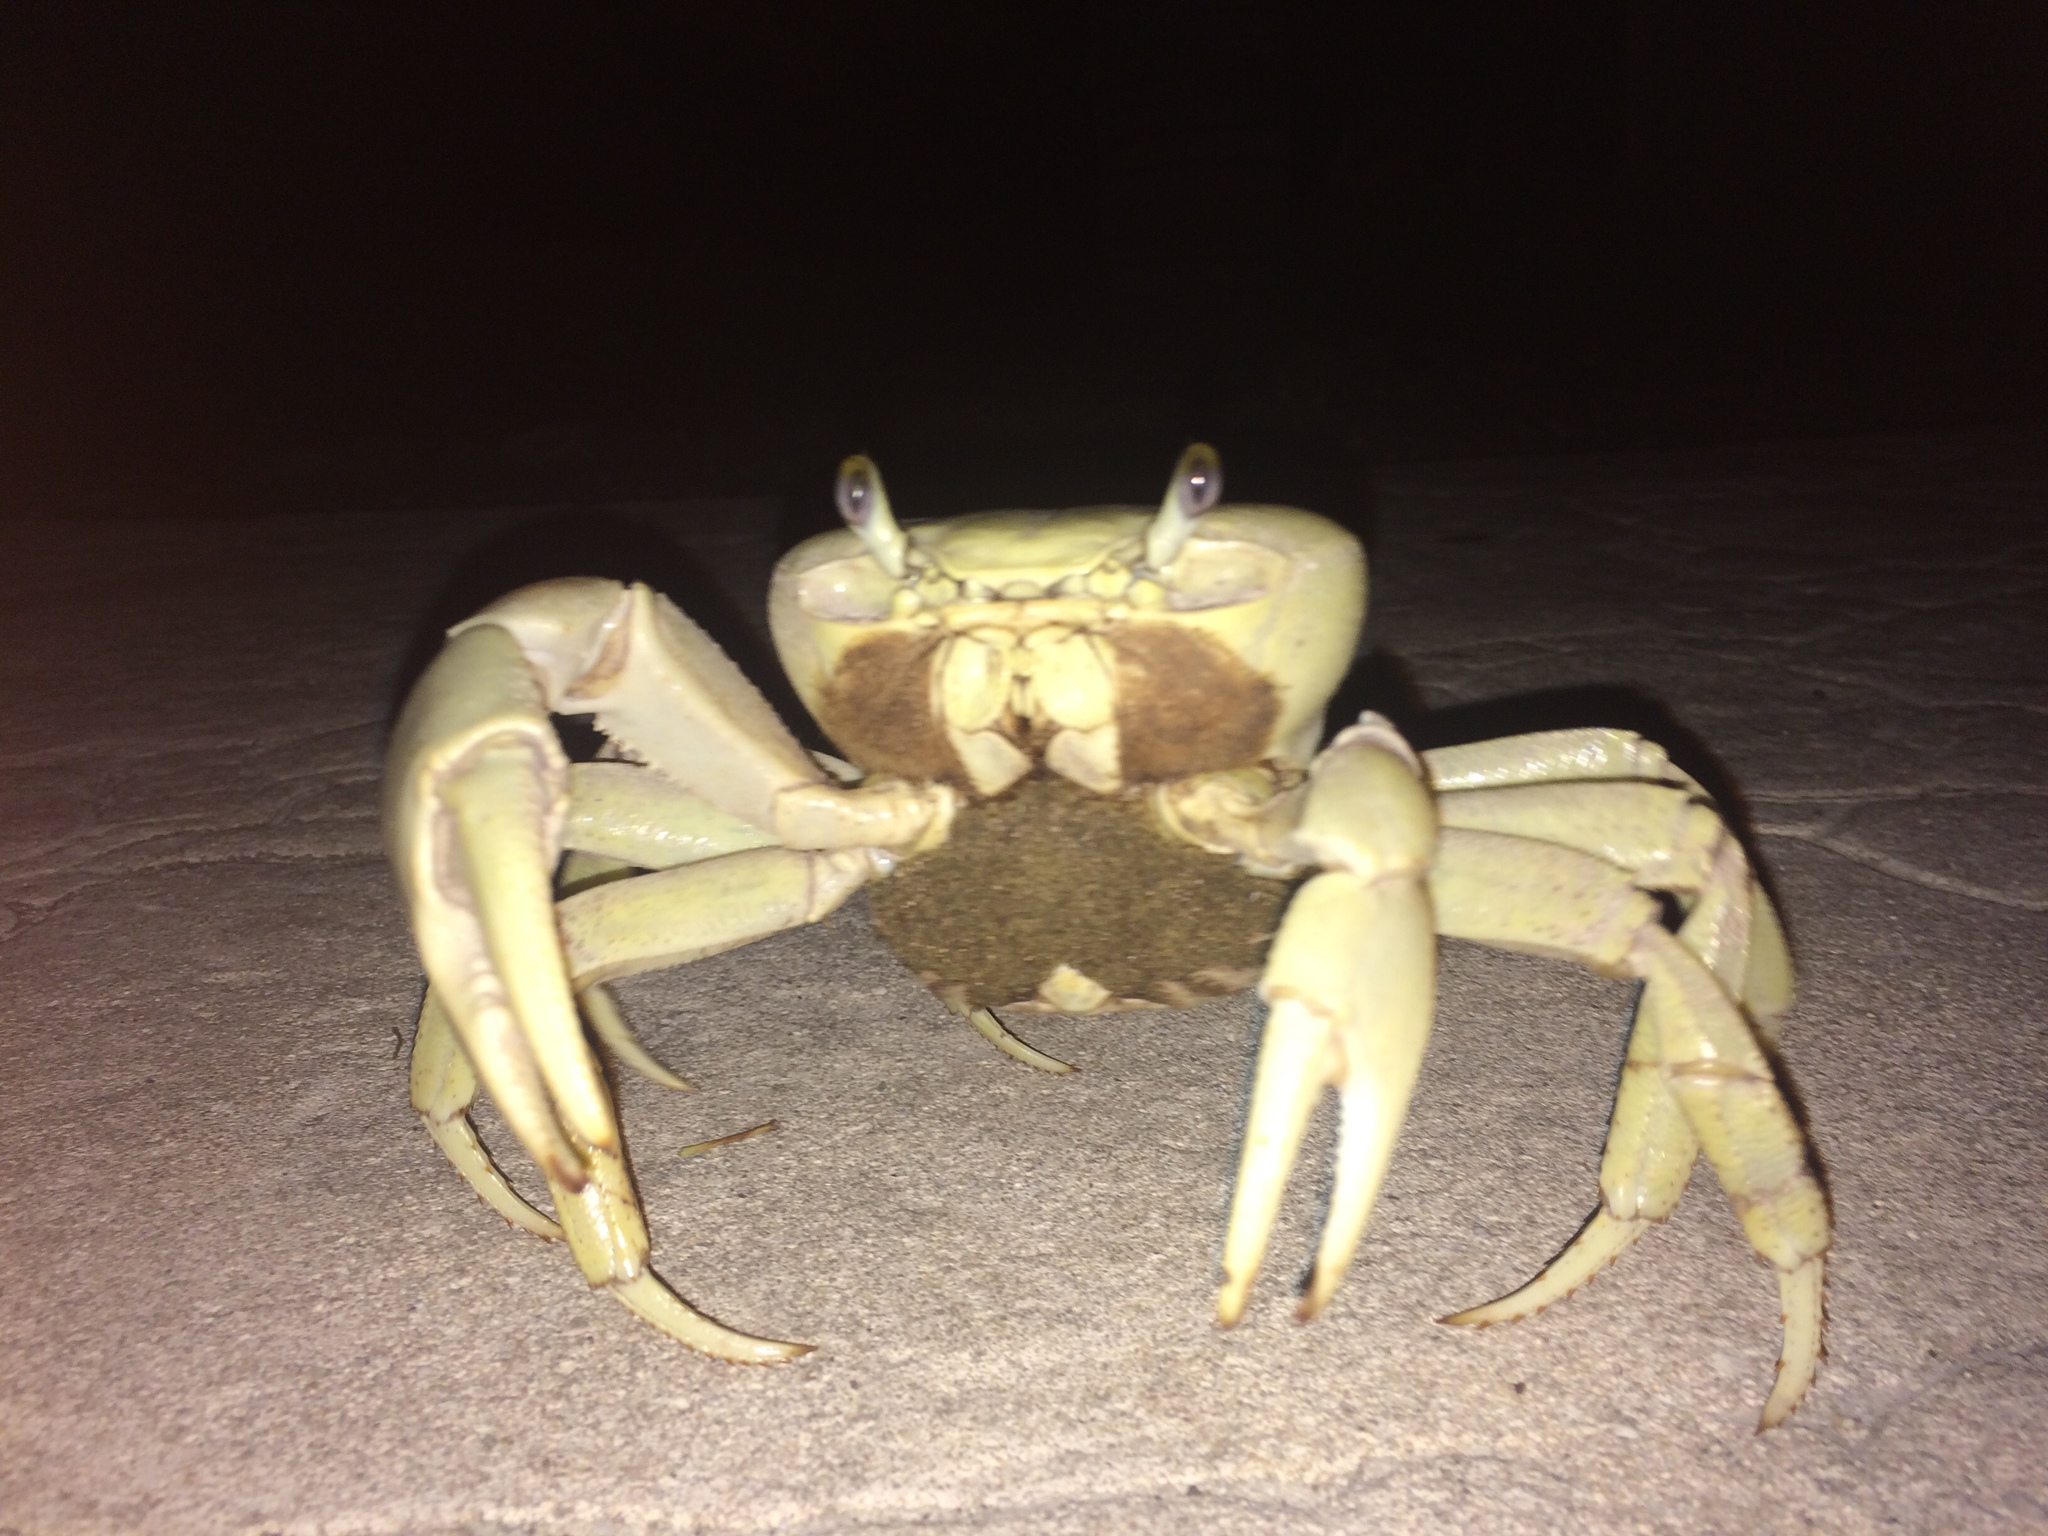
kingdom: Animalia
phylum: Arthropoda
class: Malacostraca
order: Decapoda
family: Gecarcinidae
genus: Cardisoma
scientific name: Cardisoma guanhumi
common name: Great land crab
